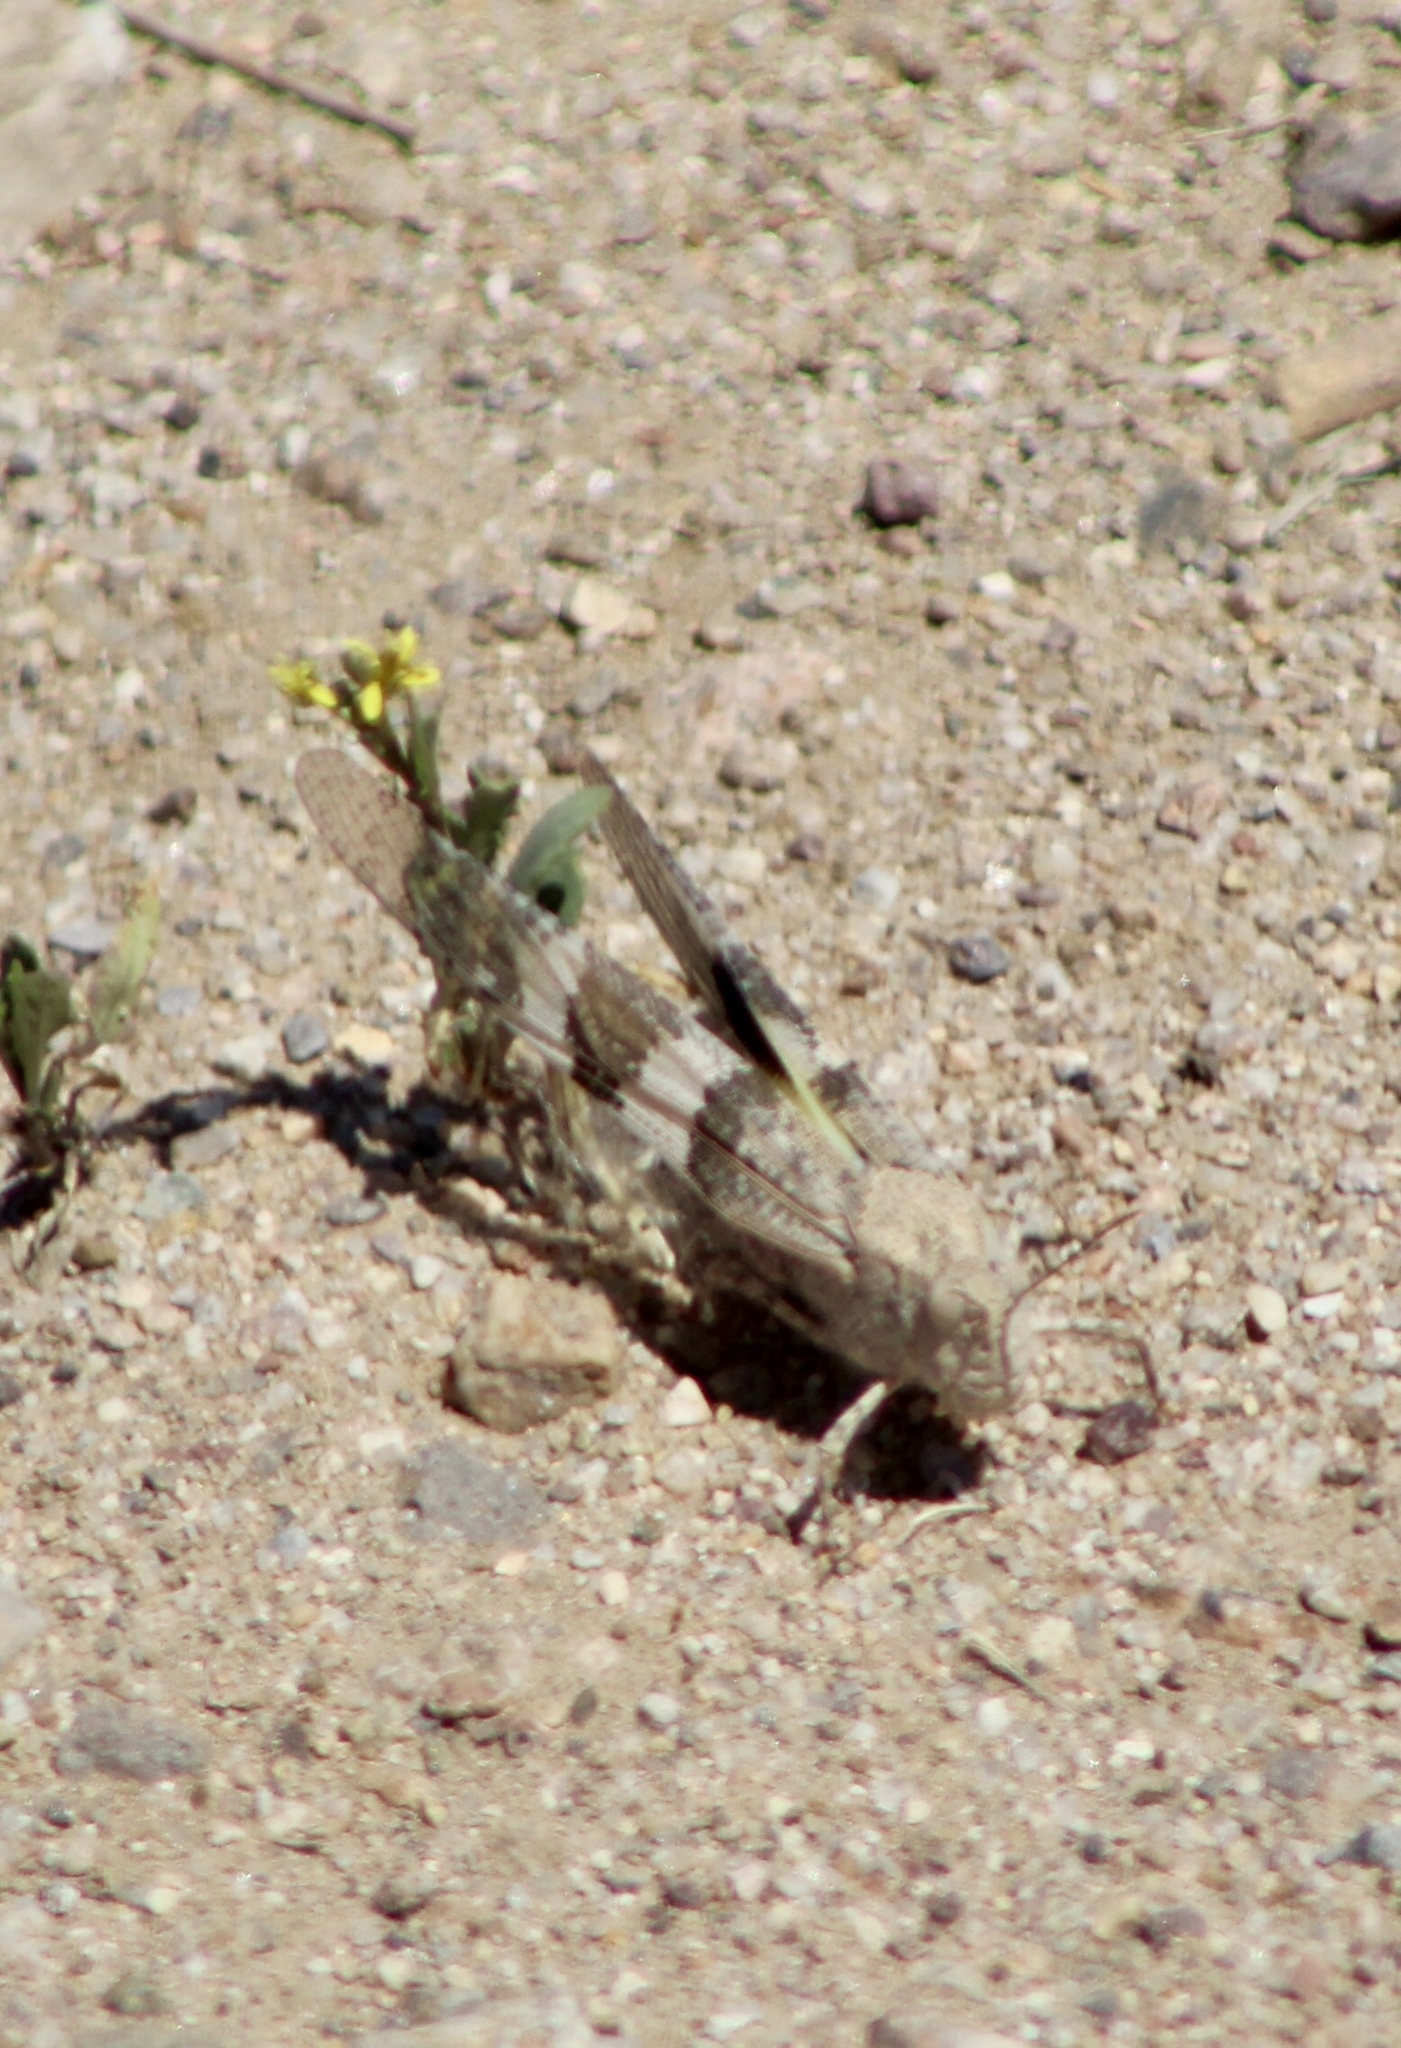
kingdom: Animalia
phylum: Arthropoda
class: Insecta
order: Orthoptera
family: Acrididae
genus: Trimerotropis
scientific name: Trimerotropis pallidipennis
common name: Pallid-winged grasshopper
